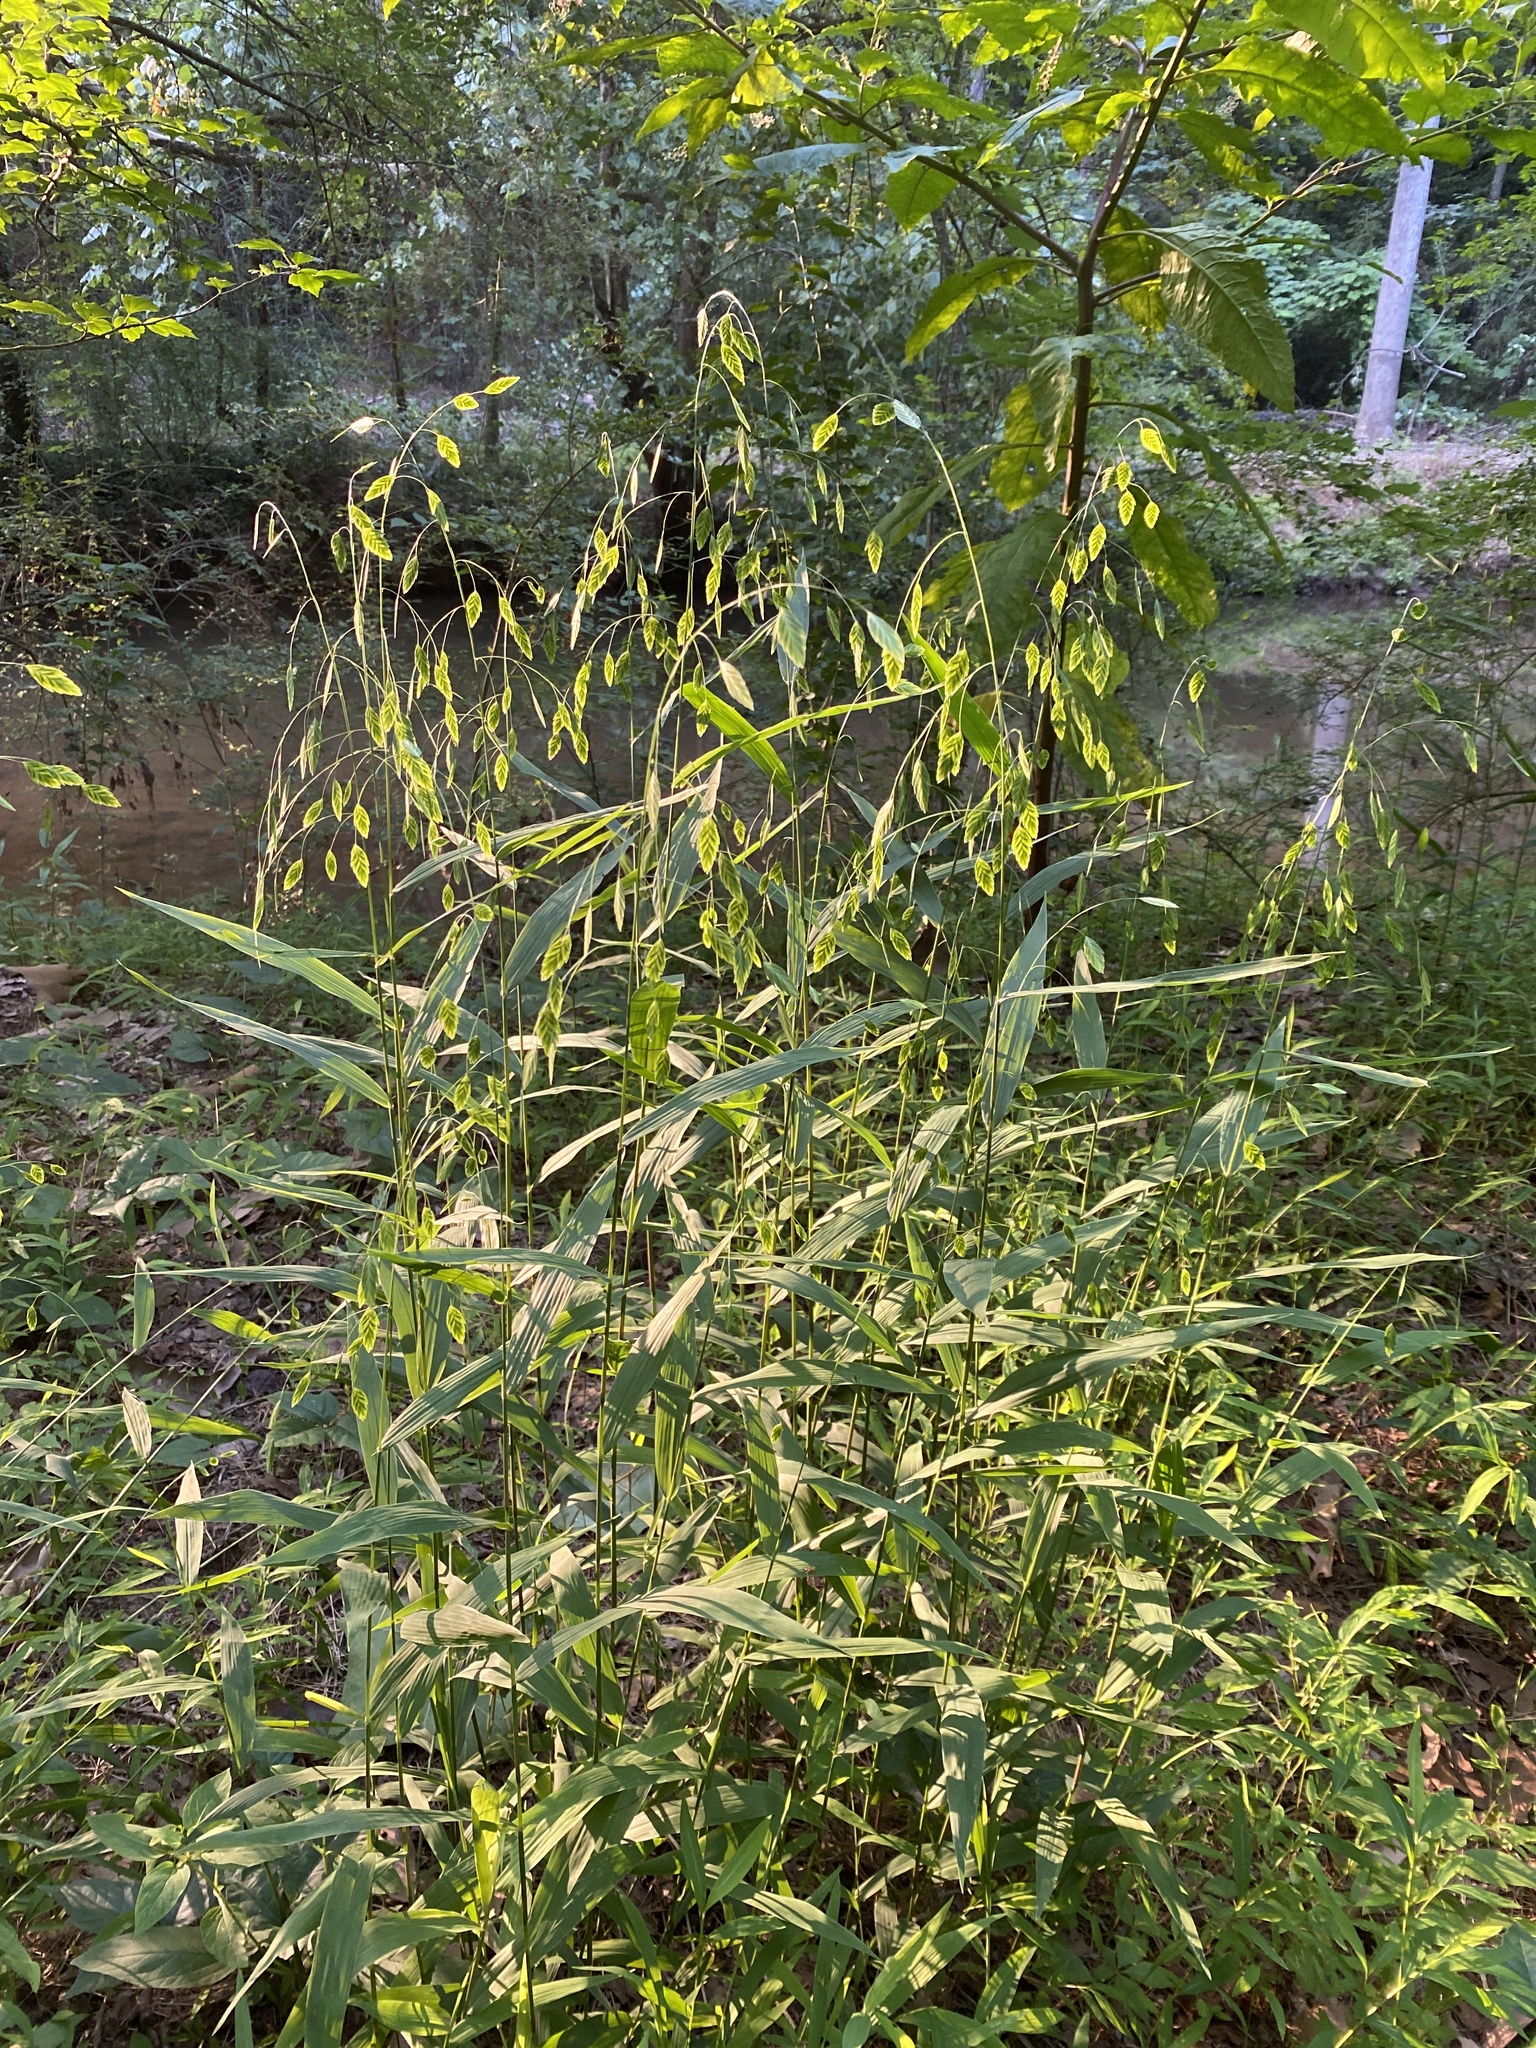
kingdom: Plantae
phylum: Tracheophyta
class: Liliopsida
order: Poales
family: Poaceae
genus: Chasmanthium
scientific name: Chasmanthium latifolium
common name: Broad-leaved chasmanthium
